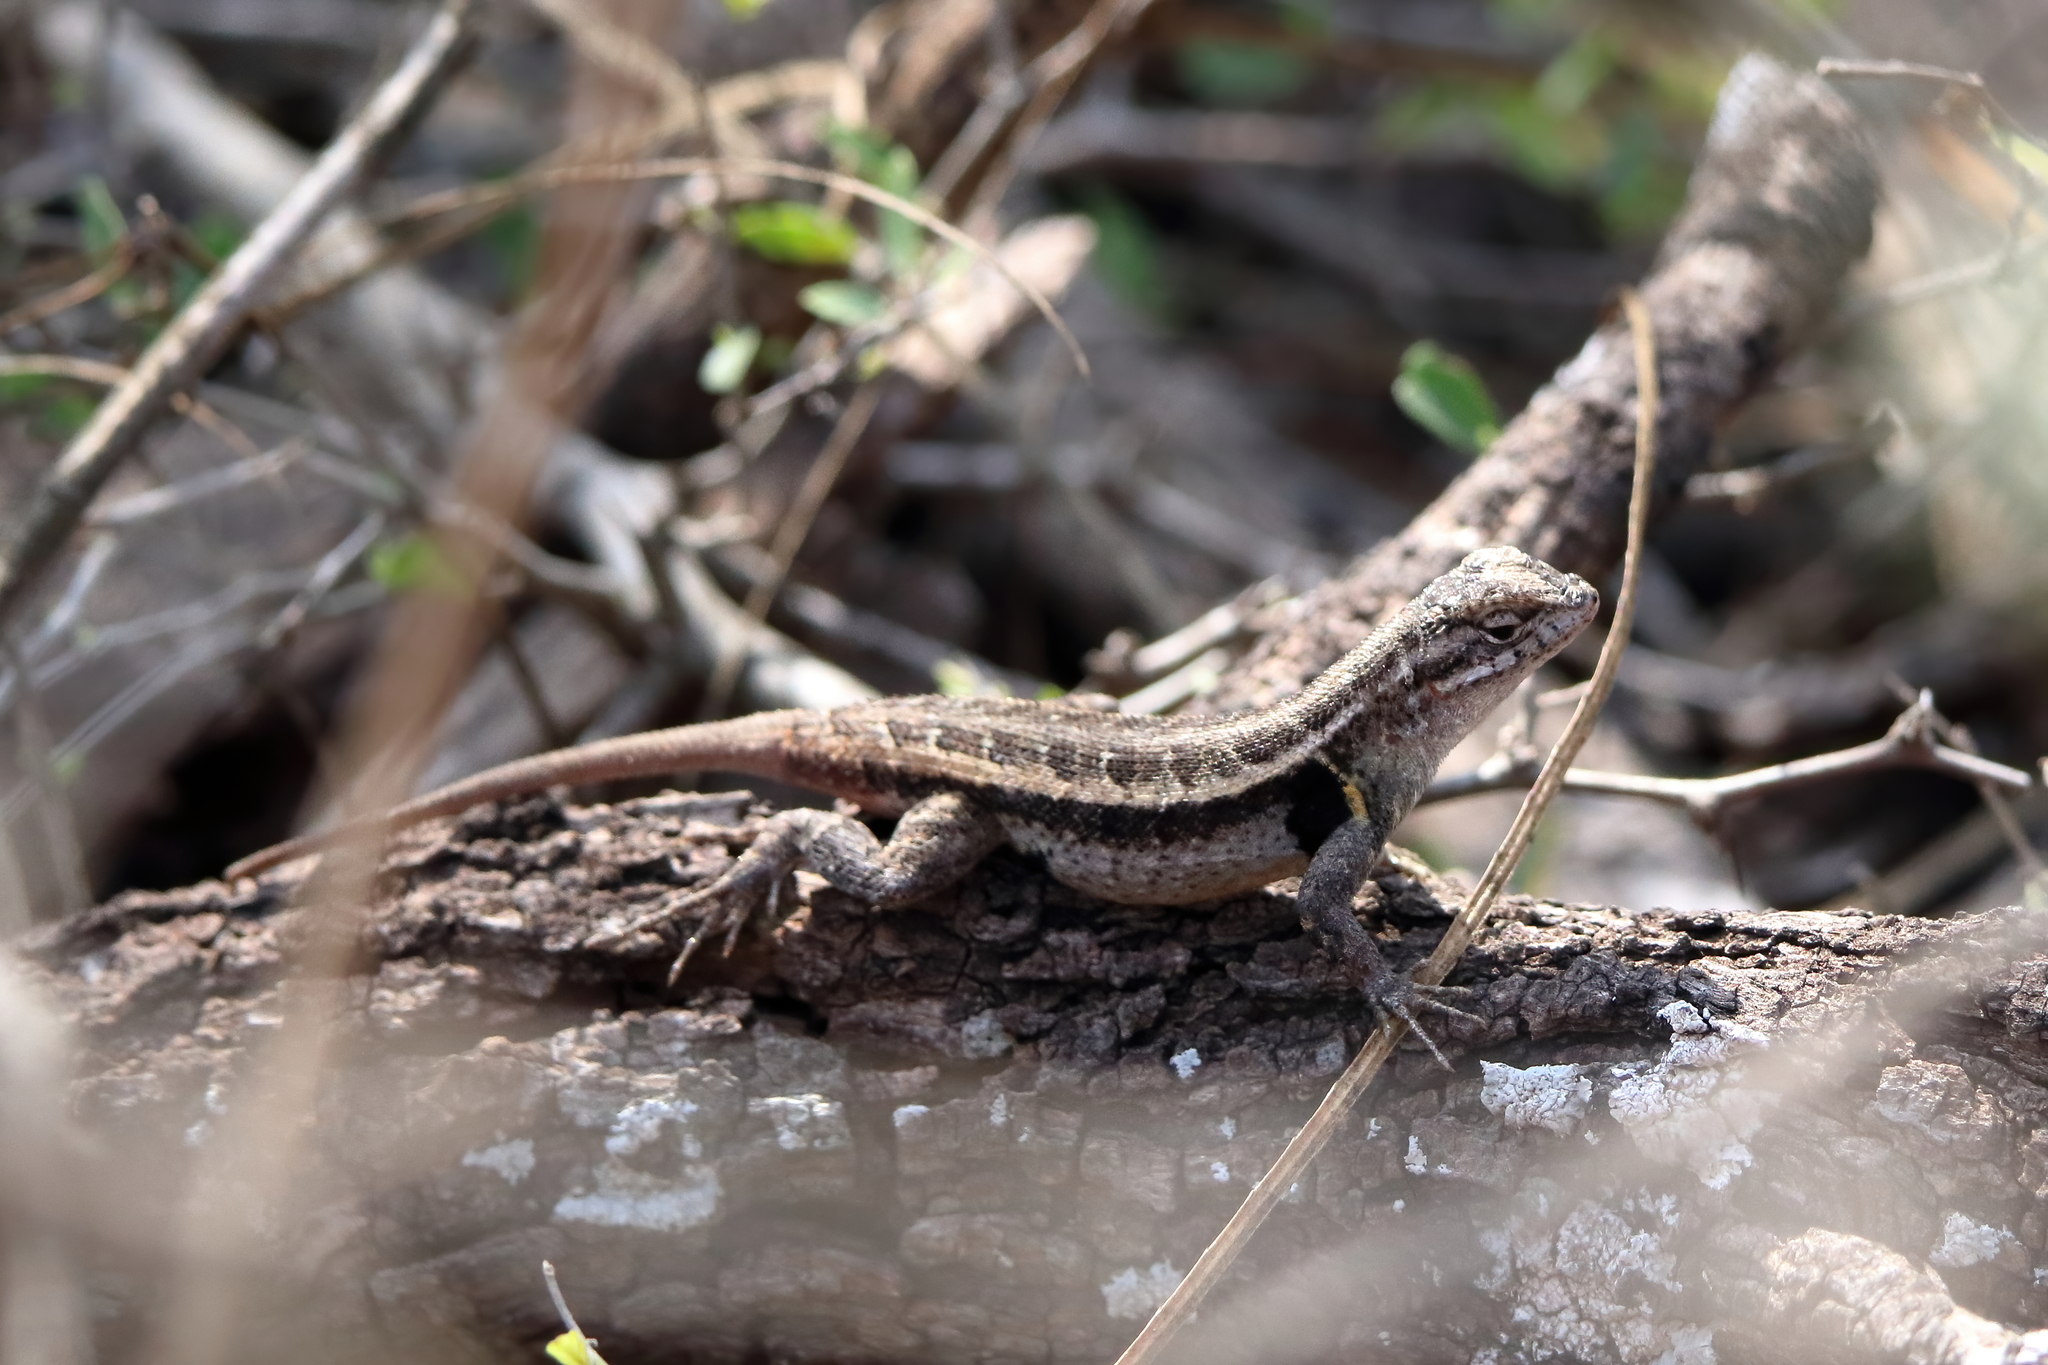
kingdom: Animalia
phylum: Chordata
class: Squamata
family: Phrynosomatidae
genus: Sceloporus
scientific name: Sceloporus variabilis
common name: Rosebelly lizard
